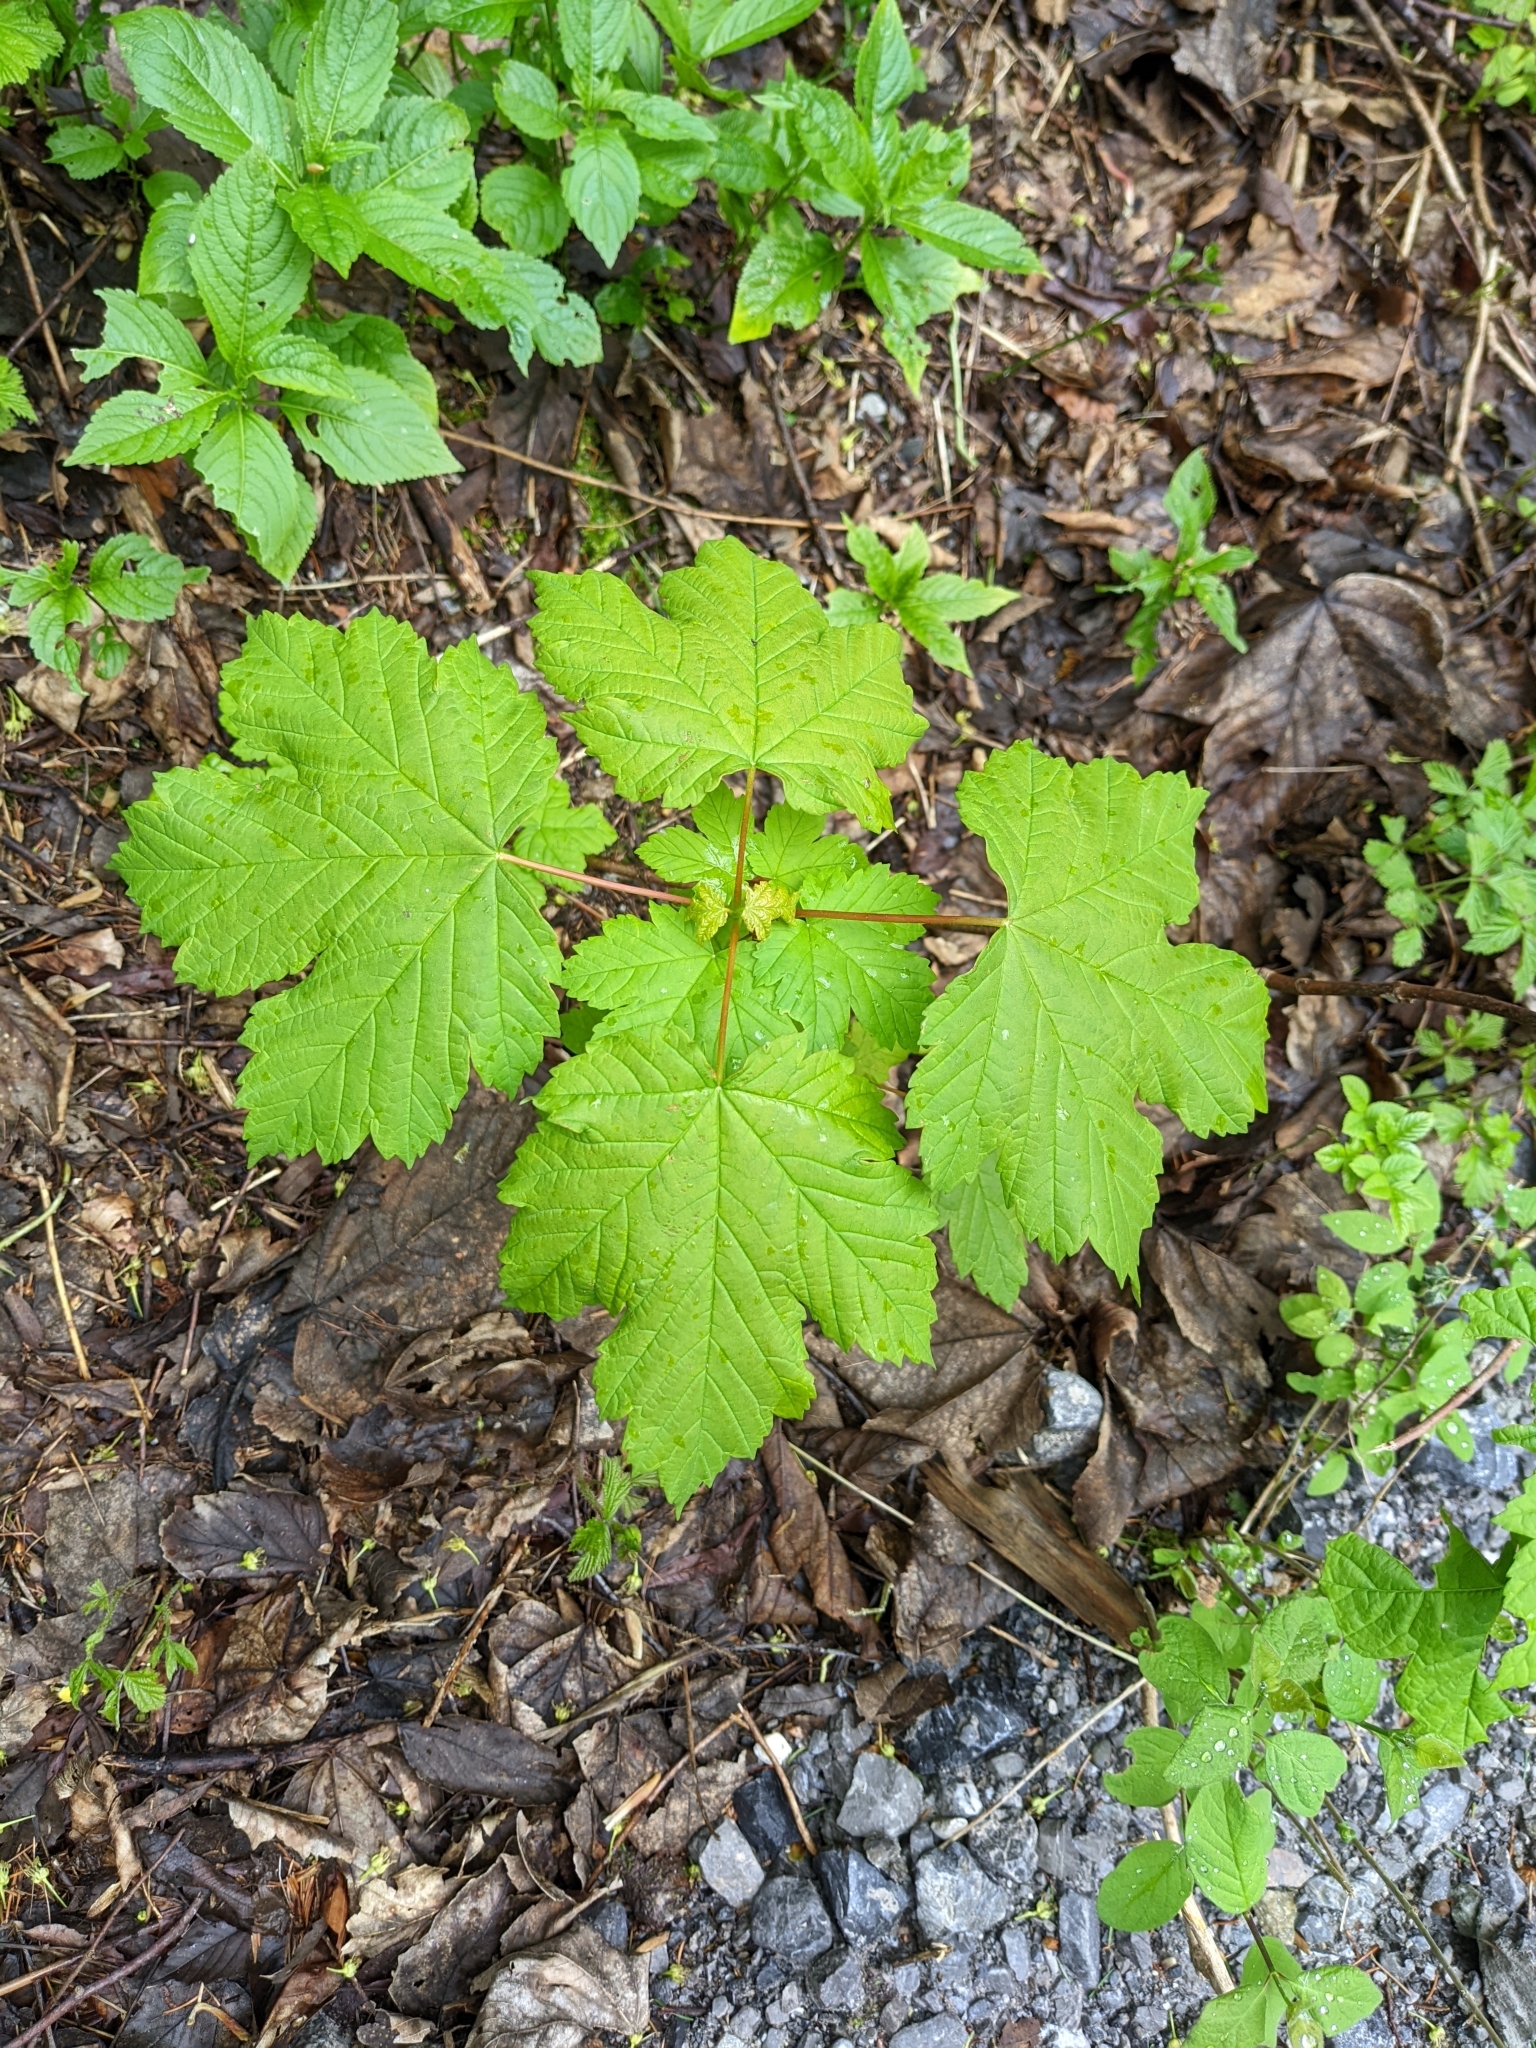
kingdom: Plantae
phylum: Tracheophyta
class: Magnoliopsida
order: Sapindales
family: Sapindaceae
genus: Acer
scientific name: Acer pseudoplatanus
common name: Sycamore
